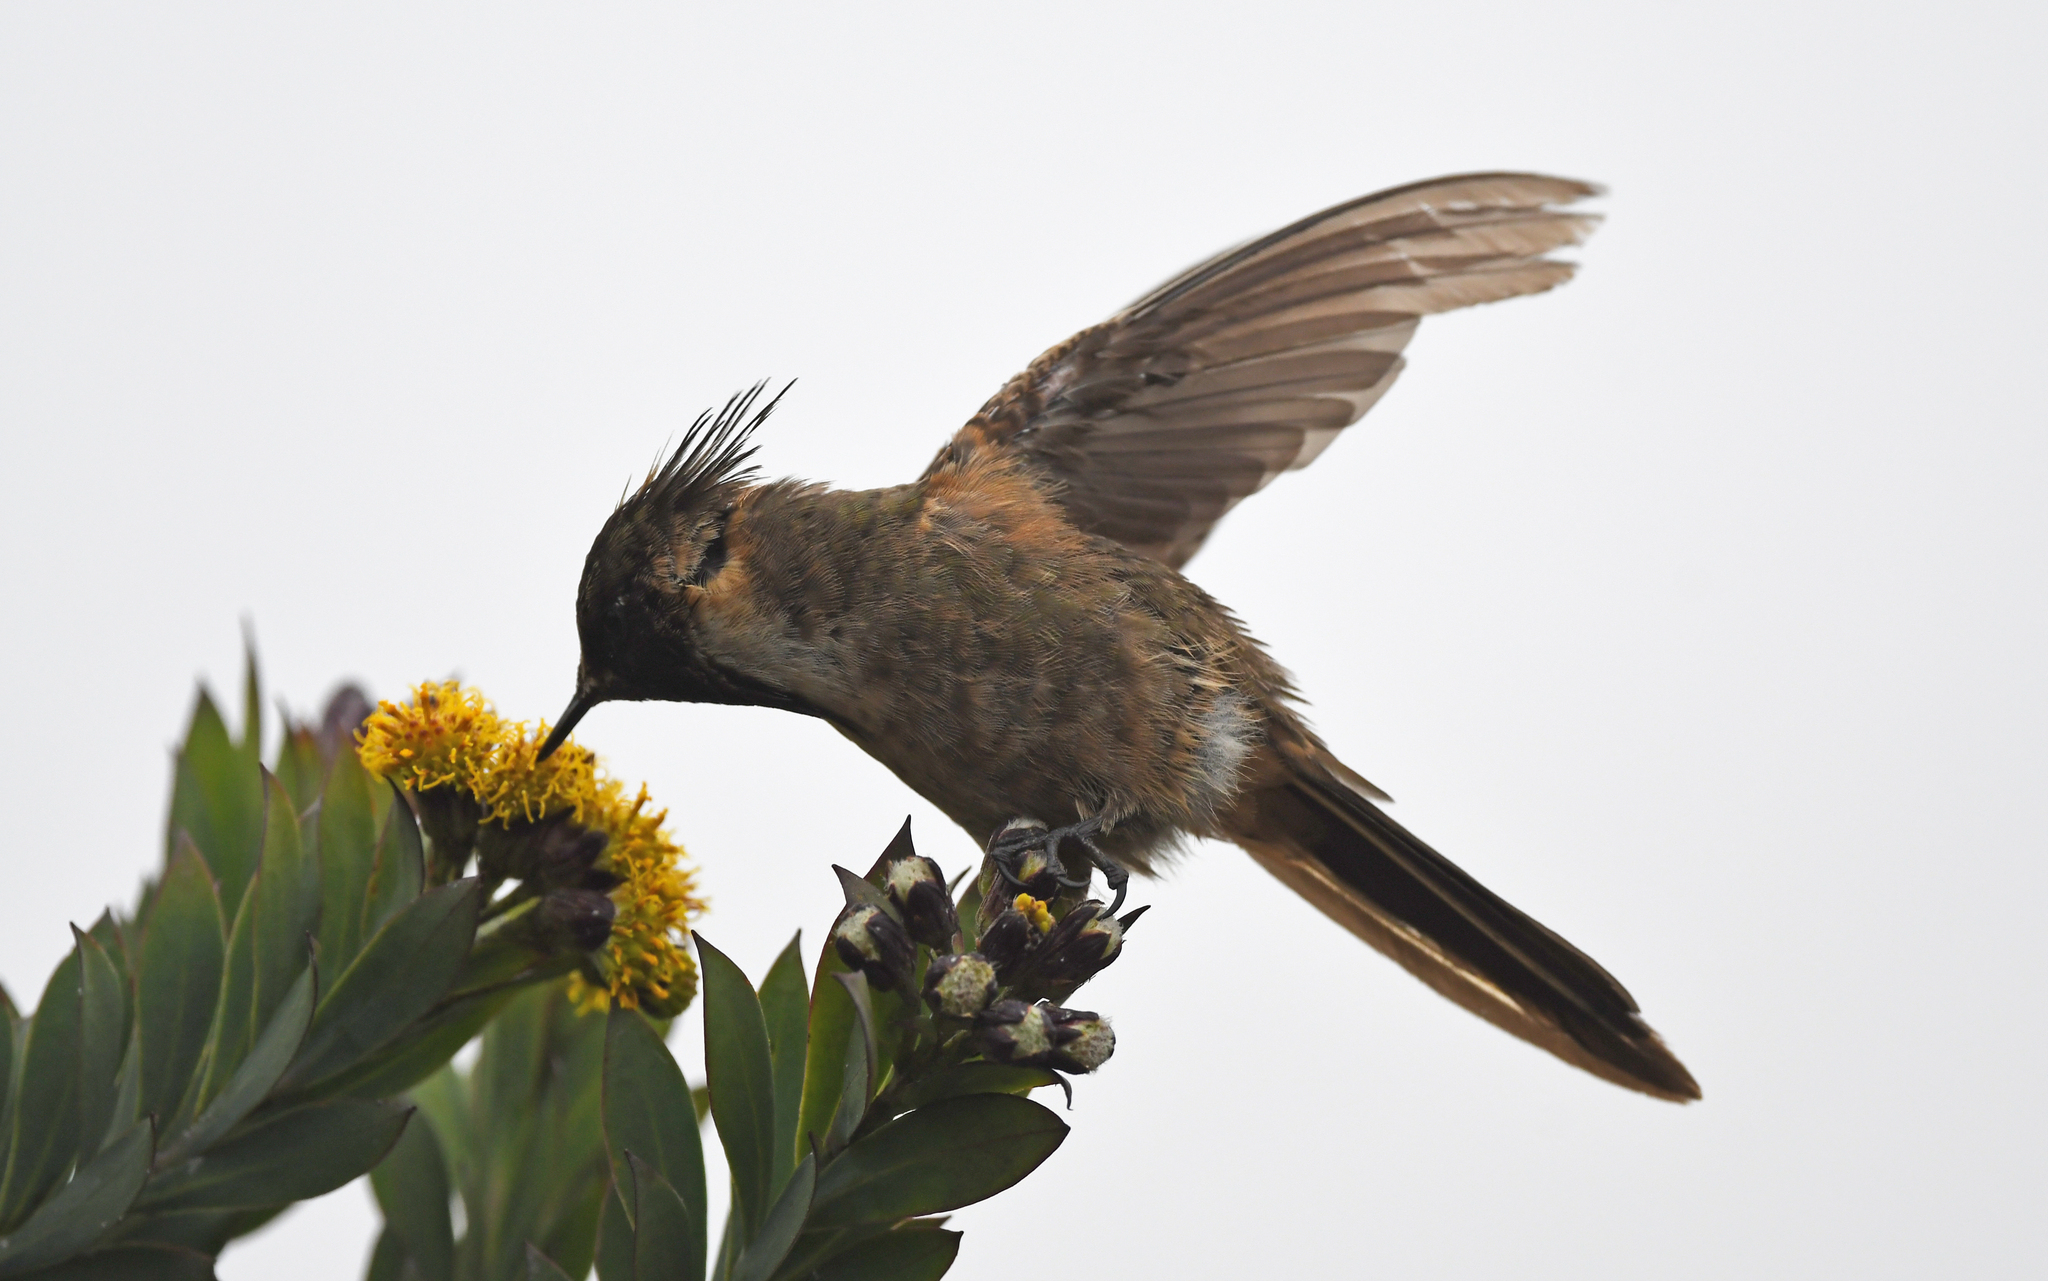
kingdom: Animalia
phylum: Chordata
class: Aves
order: Apodiformes
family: Trochilidae
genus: Oxypogon
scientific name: Oxypogon stuebelii
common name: Buffy helmetcrest
